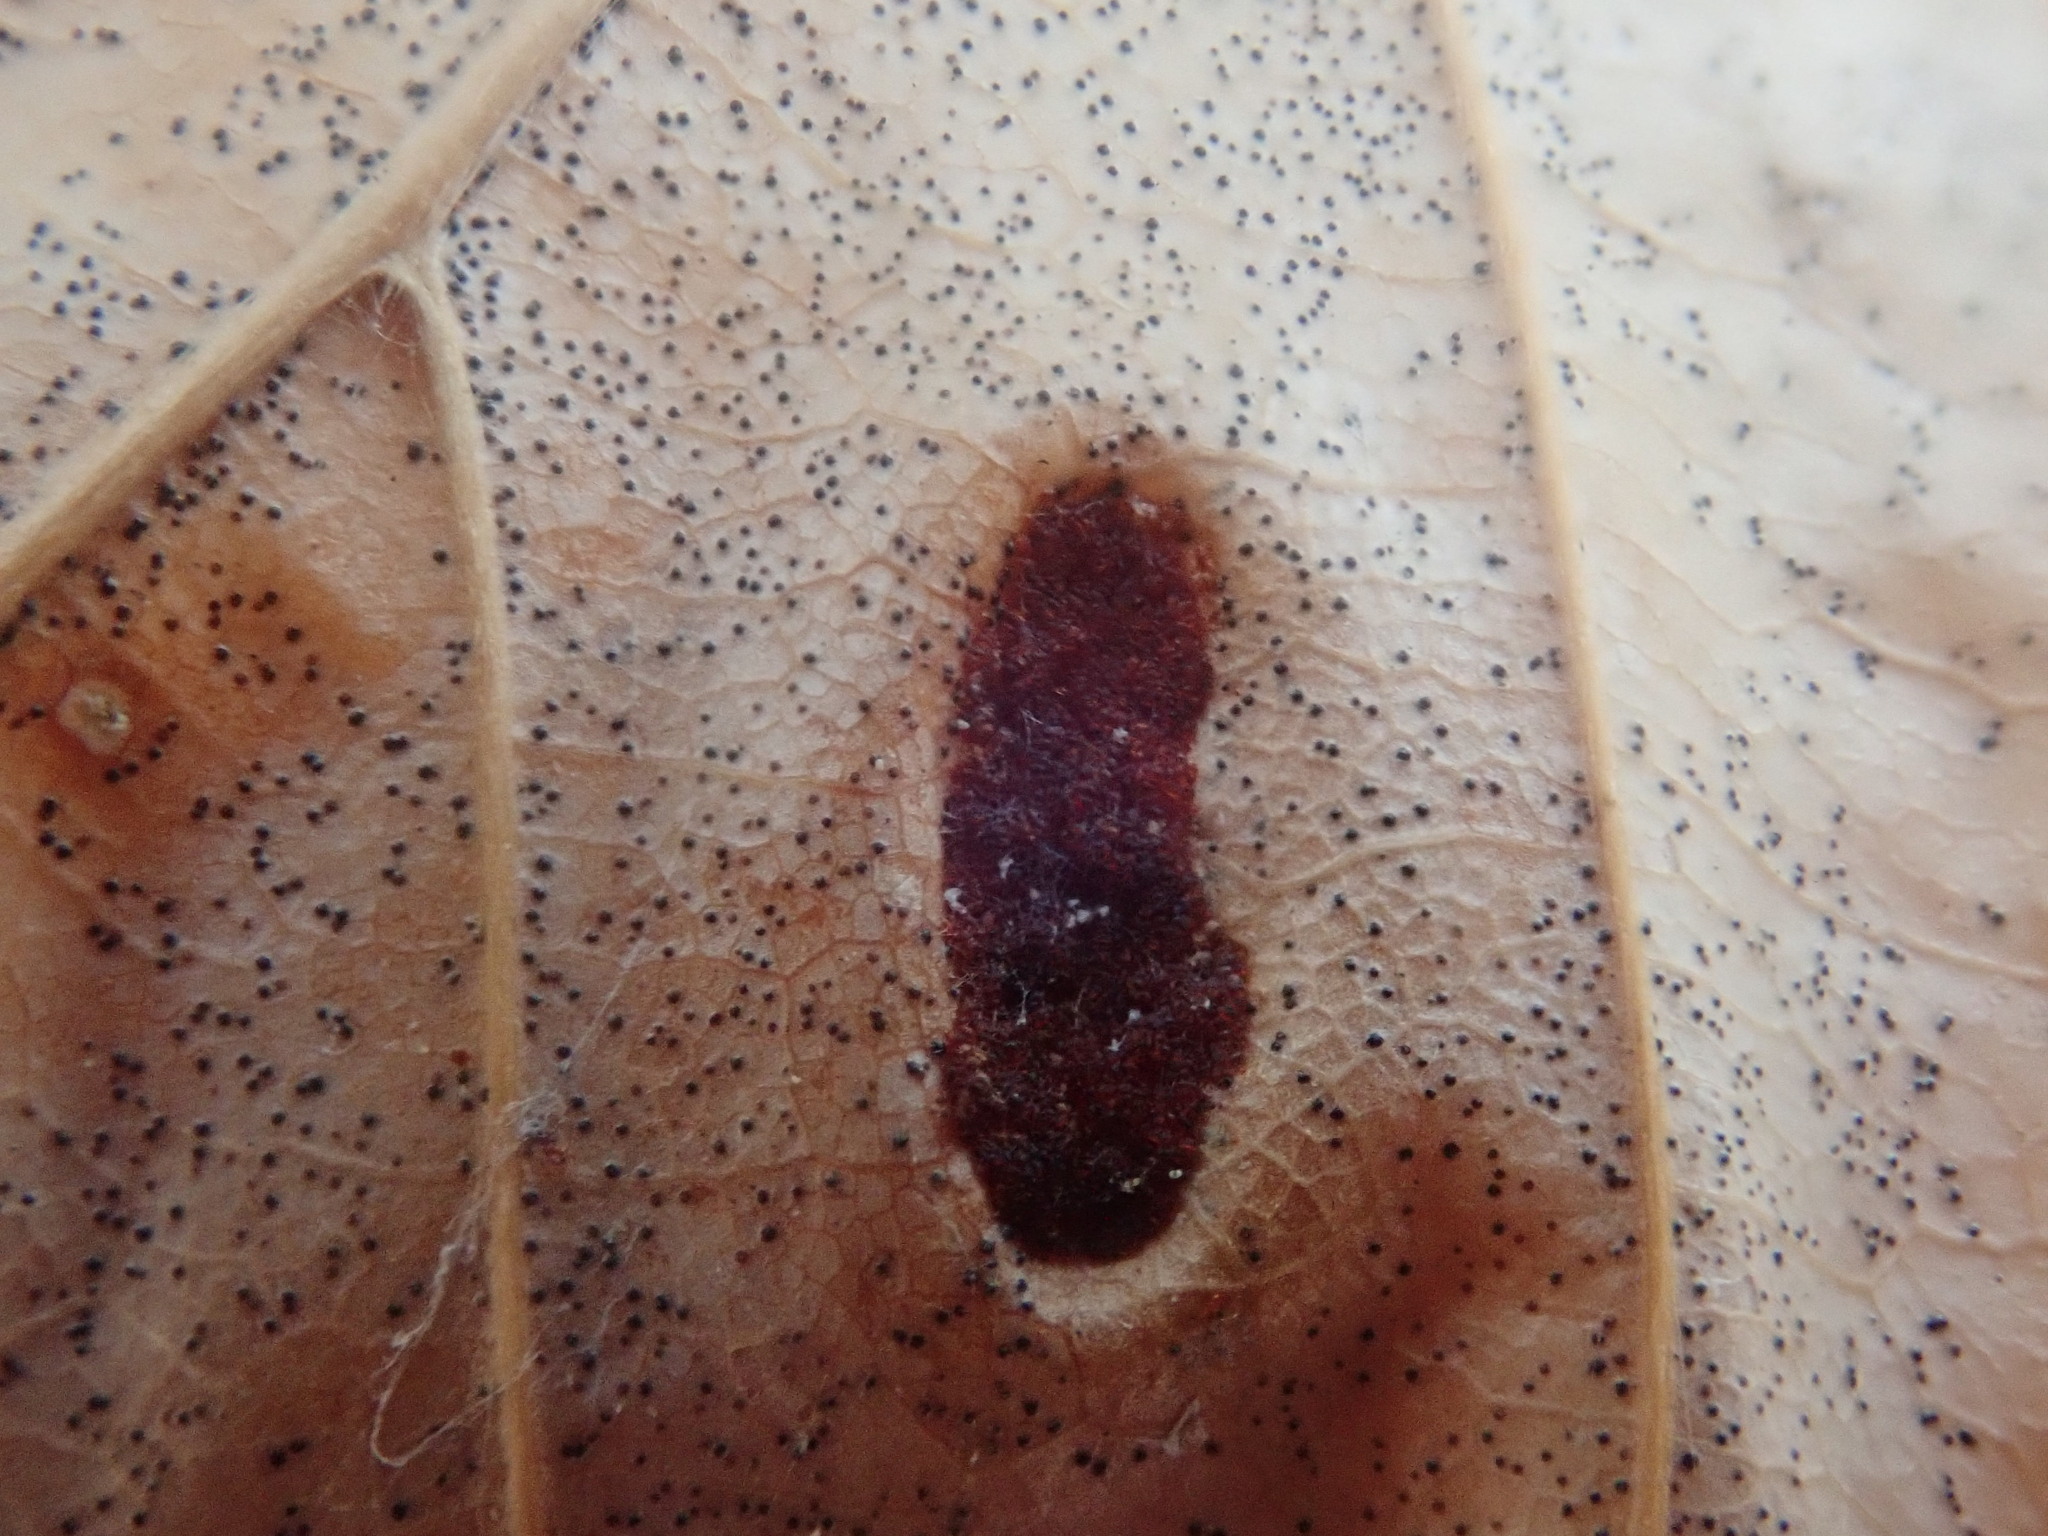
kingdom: Animalia
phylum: Arthropoda
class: Arachnida
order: Trombidiformes
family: Eriophyidae
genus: Acalitus
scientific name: Acalitus
